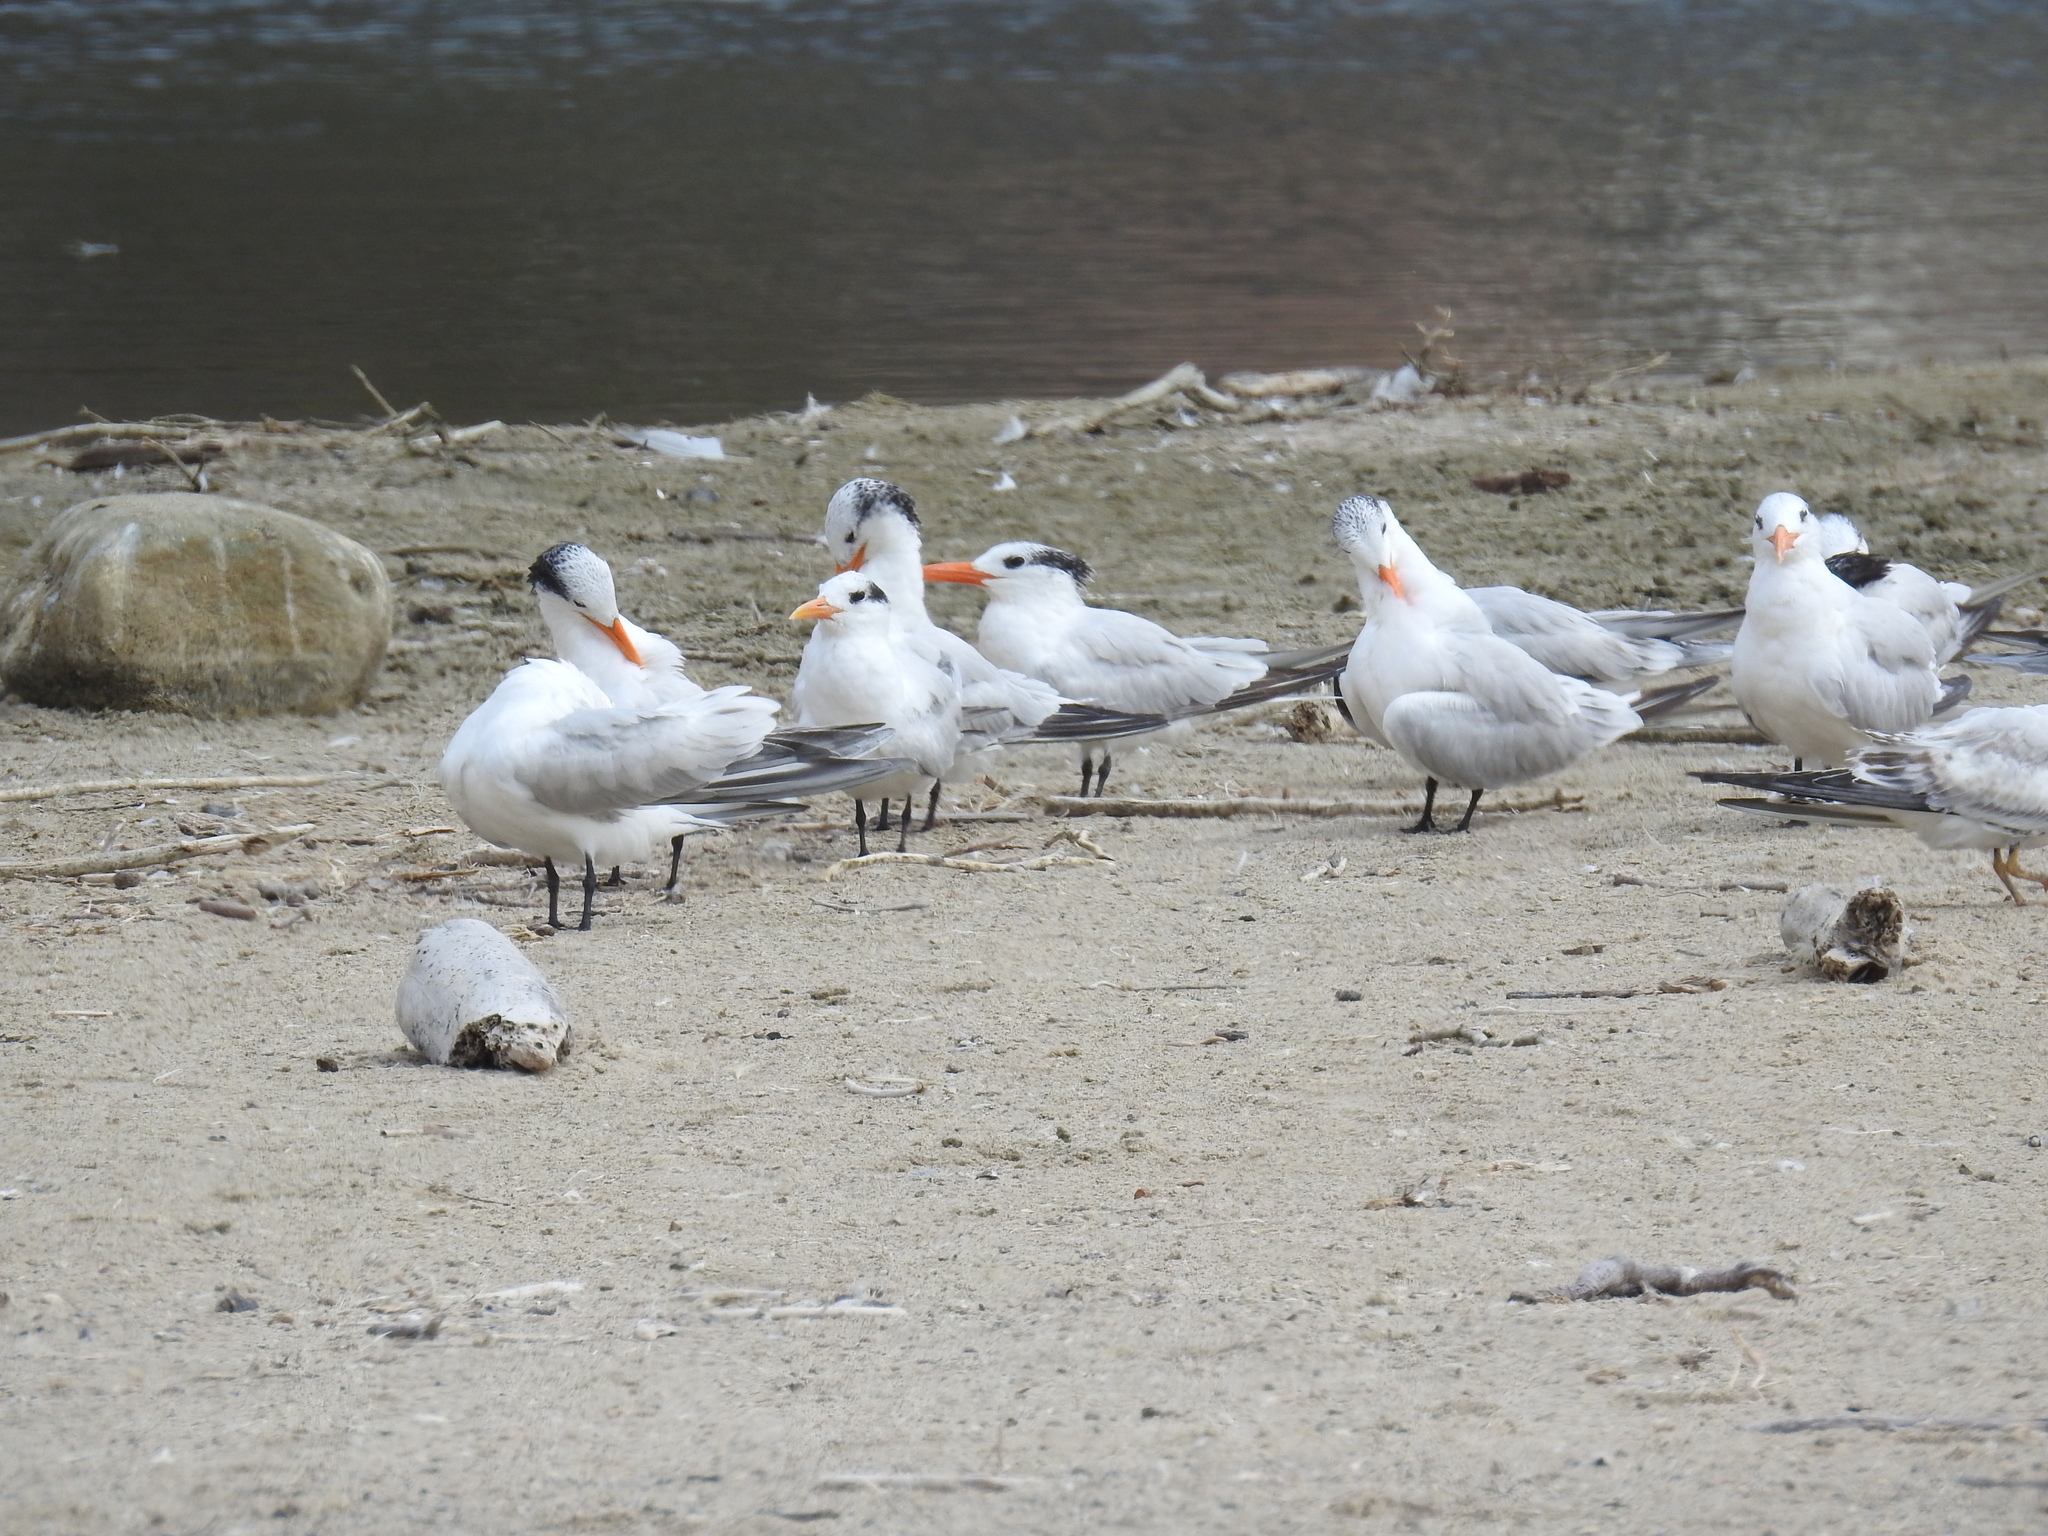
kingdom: Animalia
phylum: Chordata
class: Aves
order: Charadriiformes
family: Laridae
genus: Thalasseus
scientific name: Thalasseus maximus
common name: Royal tern
